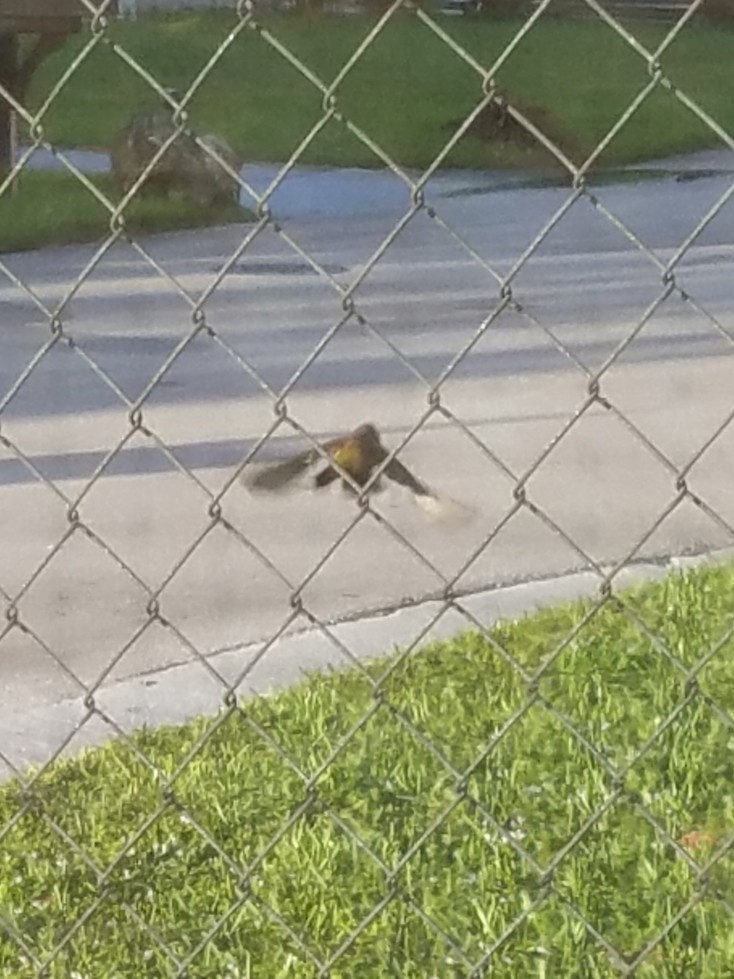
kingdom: Animalia
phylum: Chordata
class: Aves
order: Passeriformes
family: Parulidae
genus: Setophaga
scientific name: Setophaga palmarum
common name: Palm warbler
